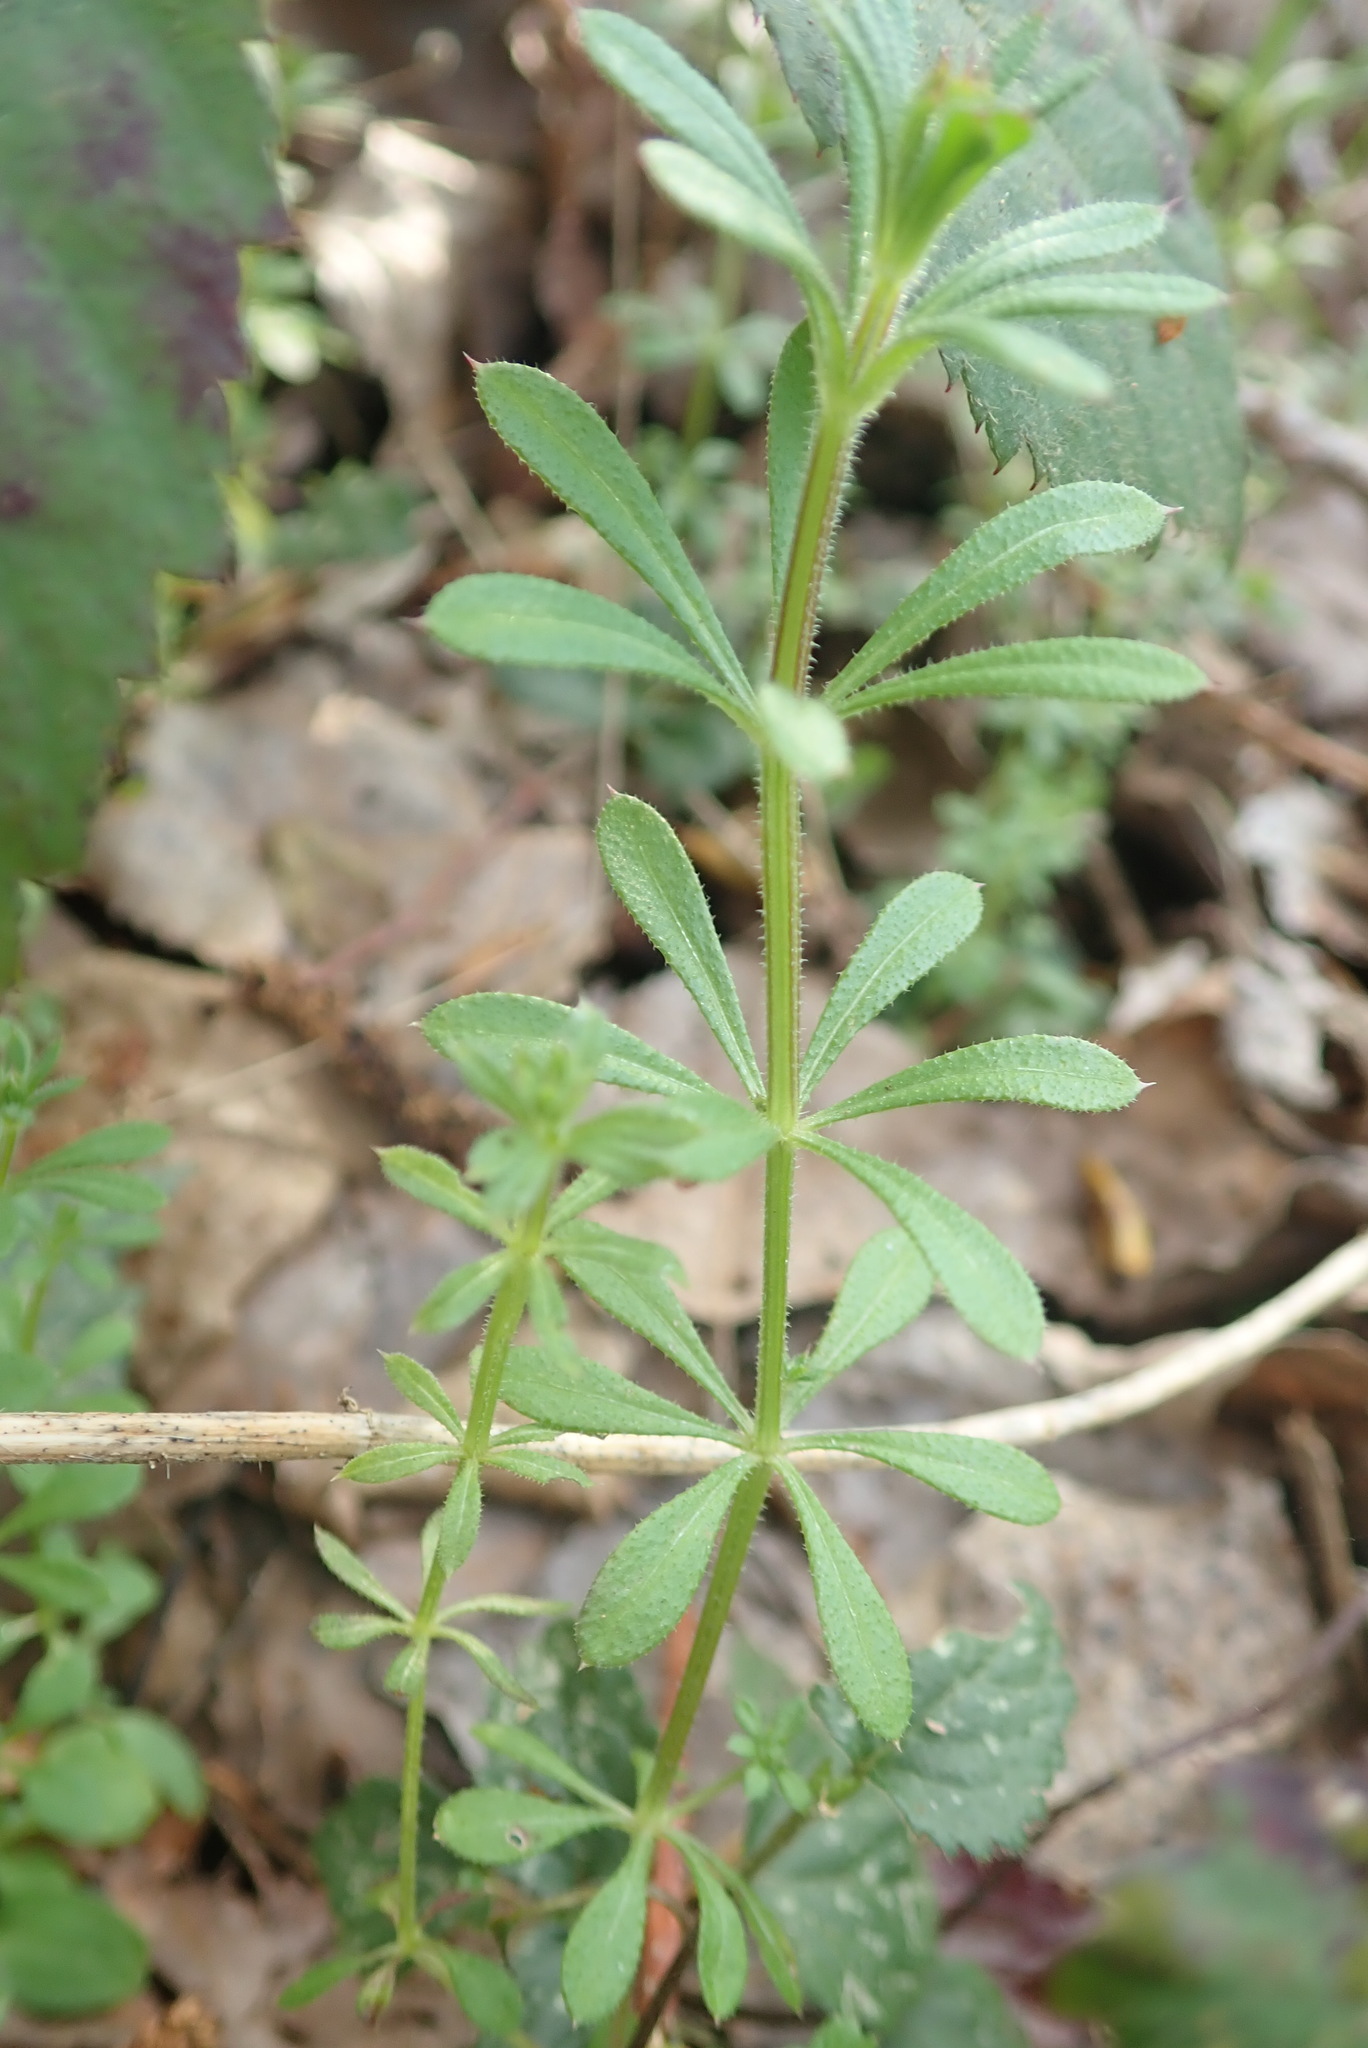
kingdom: Plantae
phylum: Tracheophyta
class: Magnoliopsida
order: Gentianales
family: Rubiaceae
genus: Galium
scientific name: Galium aparine
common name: Cleavers
